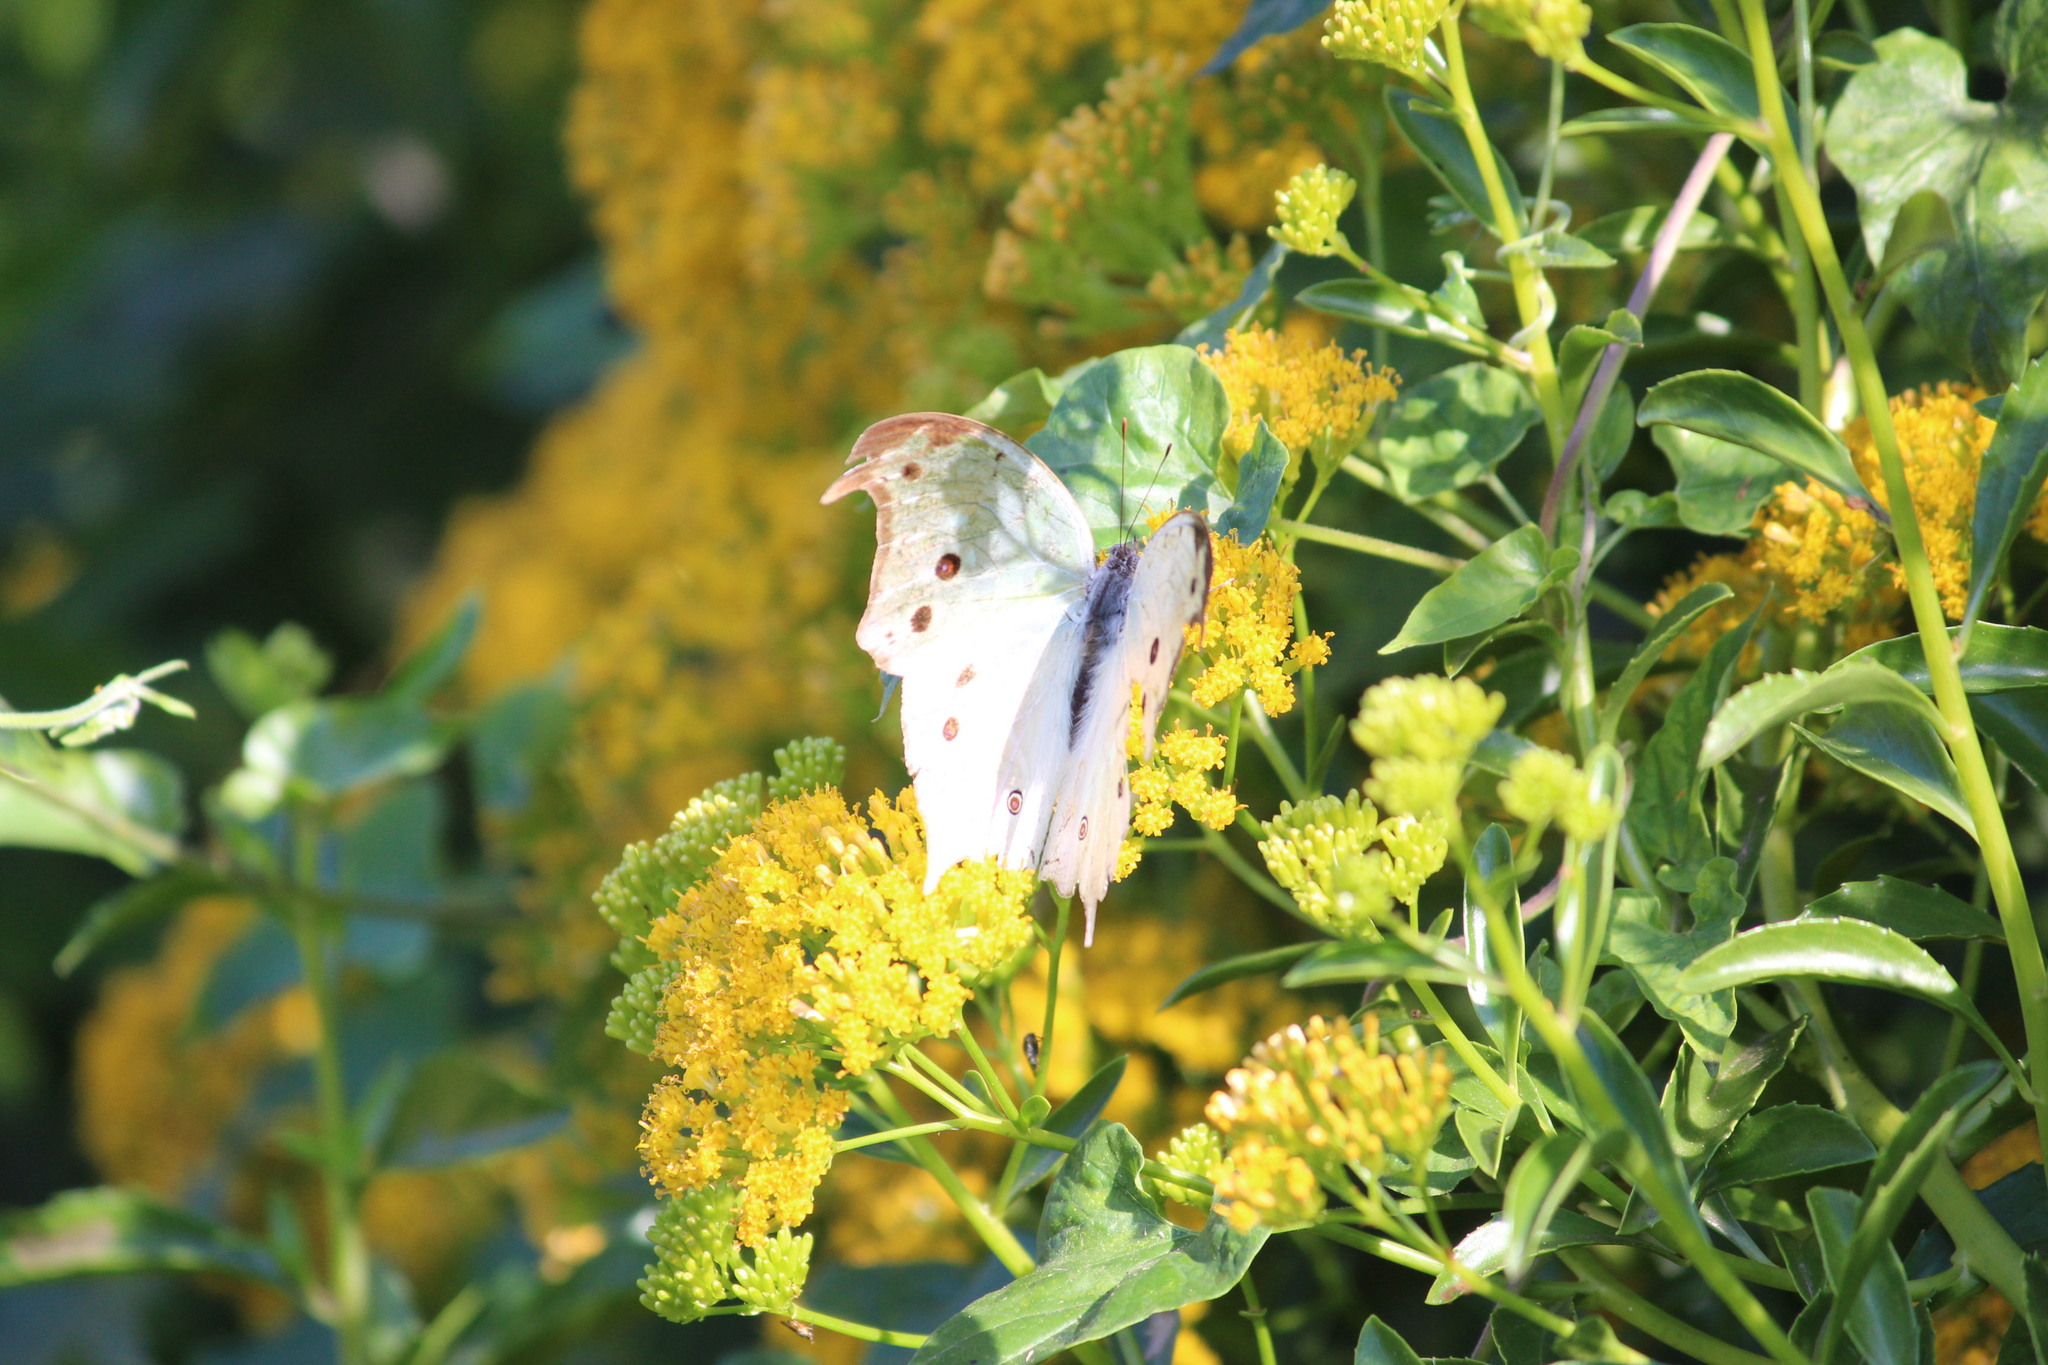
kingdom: Animalia
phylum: Arthropoda
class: Insecta
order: Lepidoptera
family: Nymphalidae
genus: Salamis
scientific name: Salamis Protogoniomorpha parhassus
